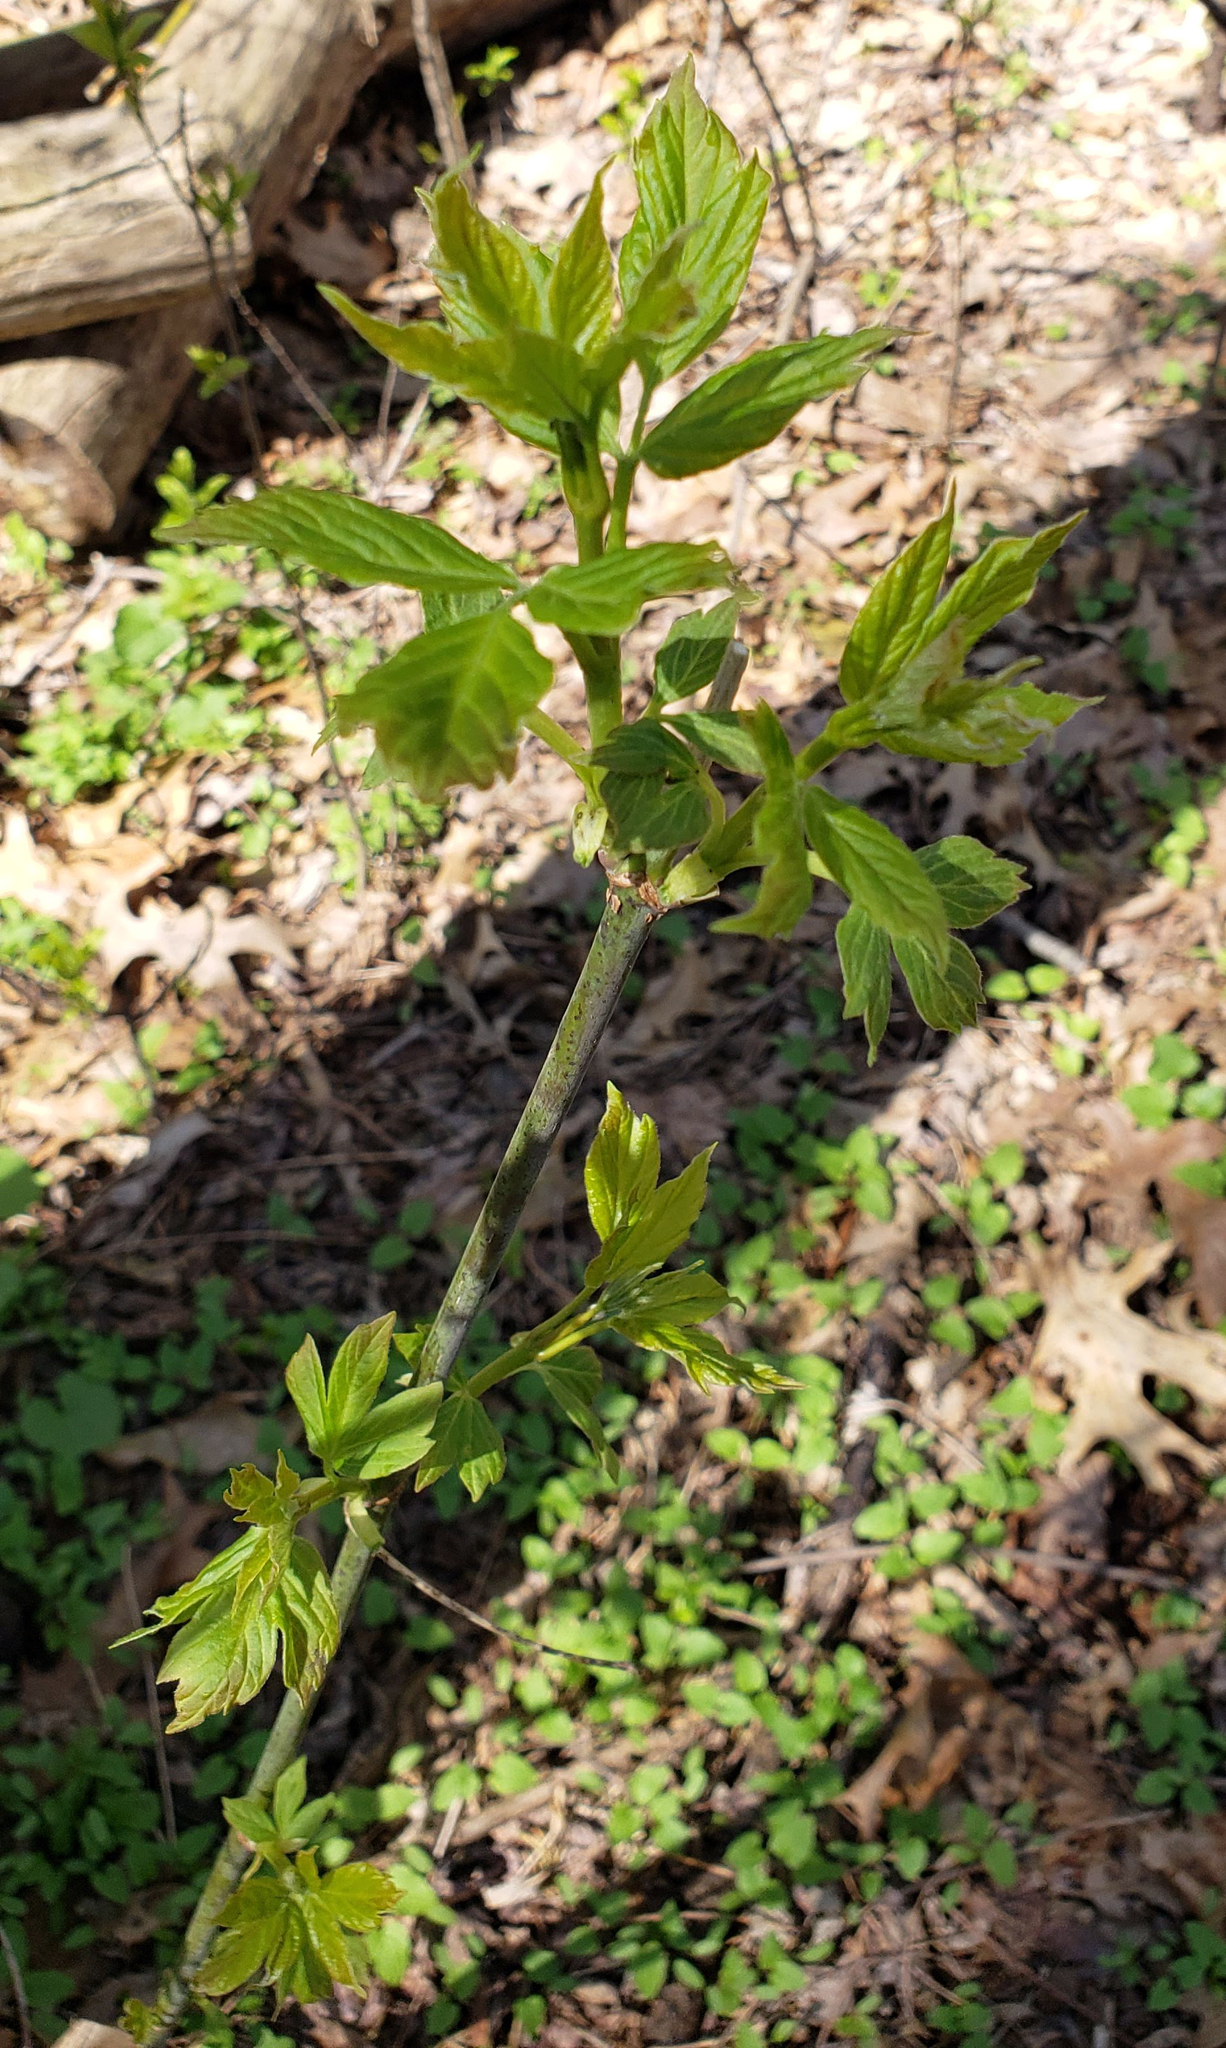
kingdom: Plantae
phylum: Tracheophyta
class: Magnoliopsida
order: Sapindales
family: Sapindaceae
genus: Acer
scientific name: Acer negundo
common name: Ashleaf maple
